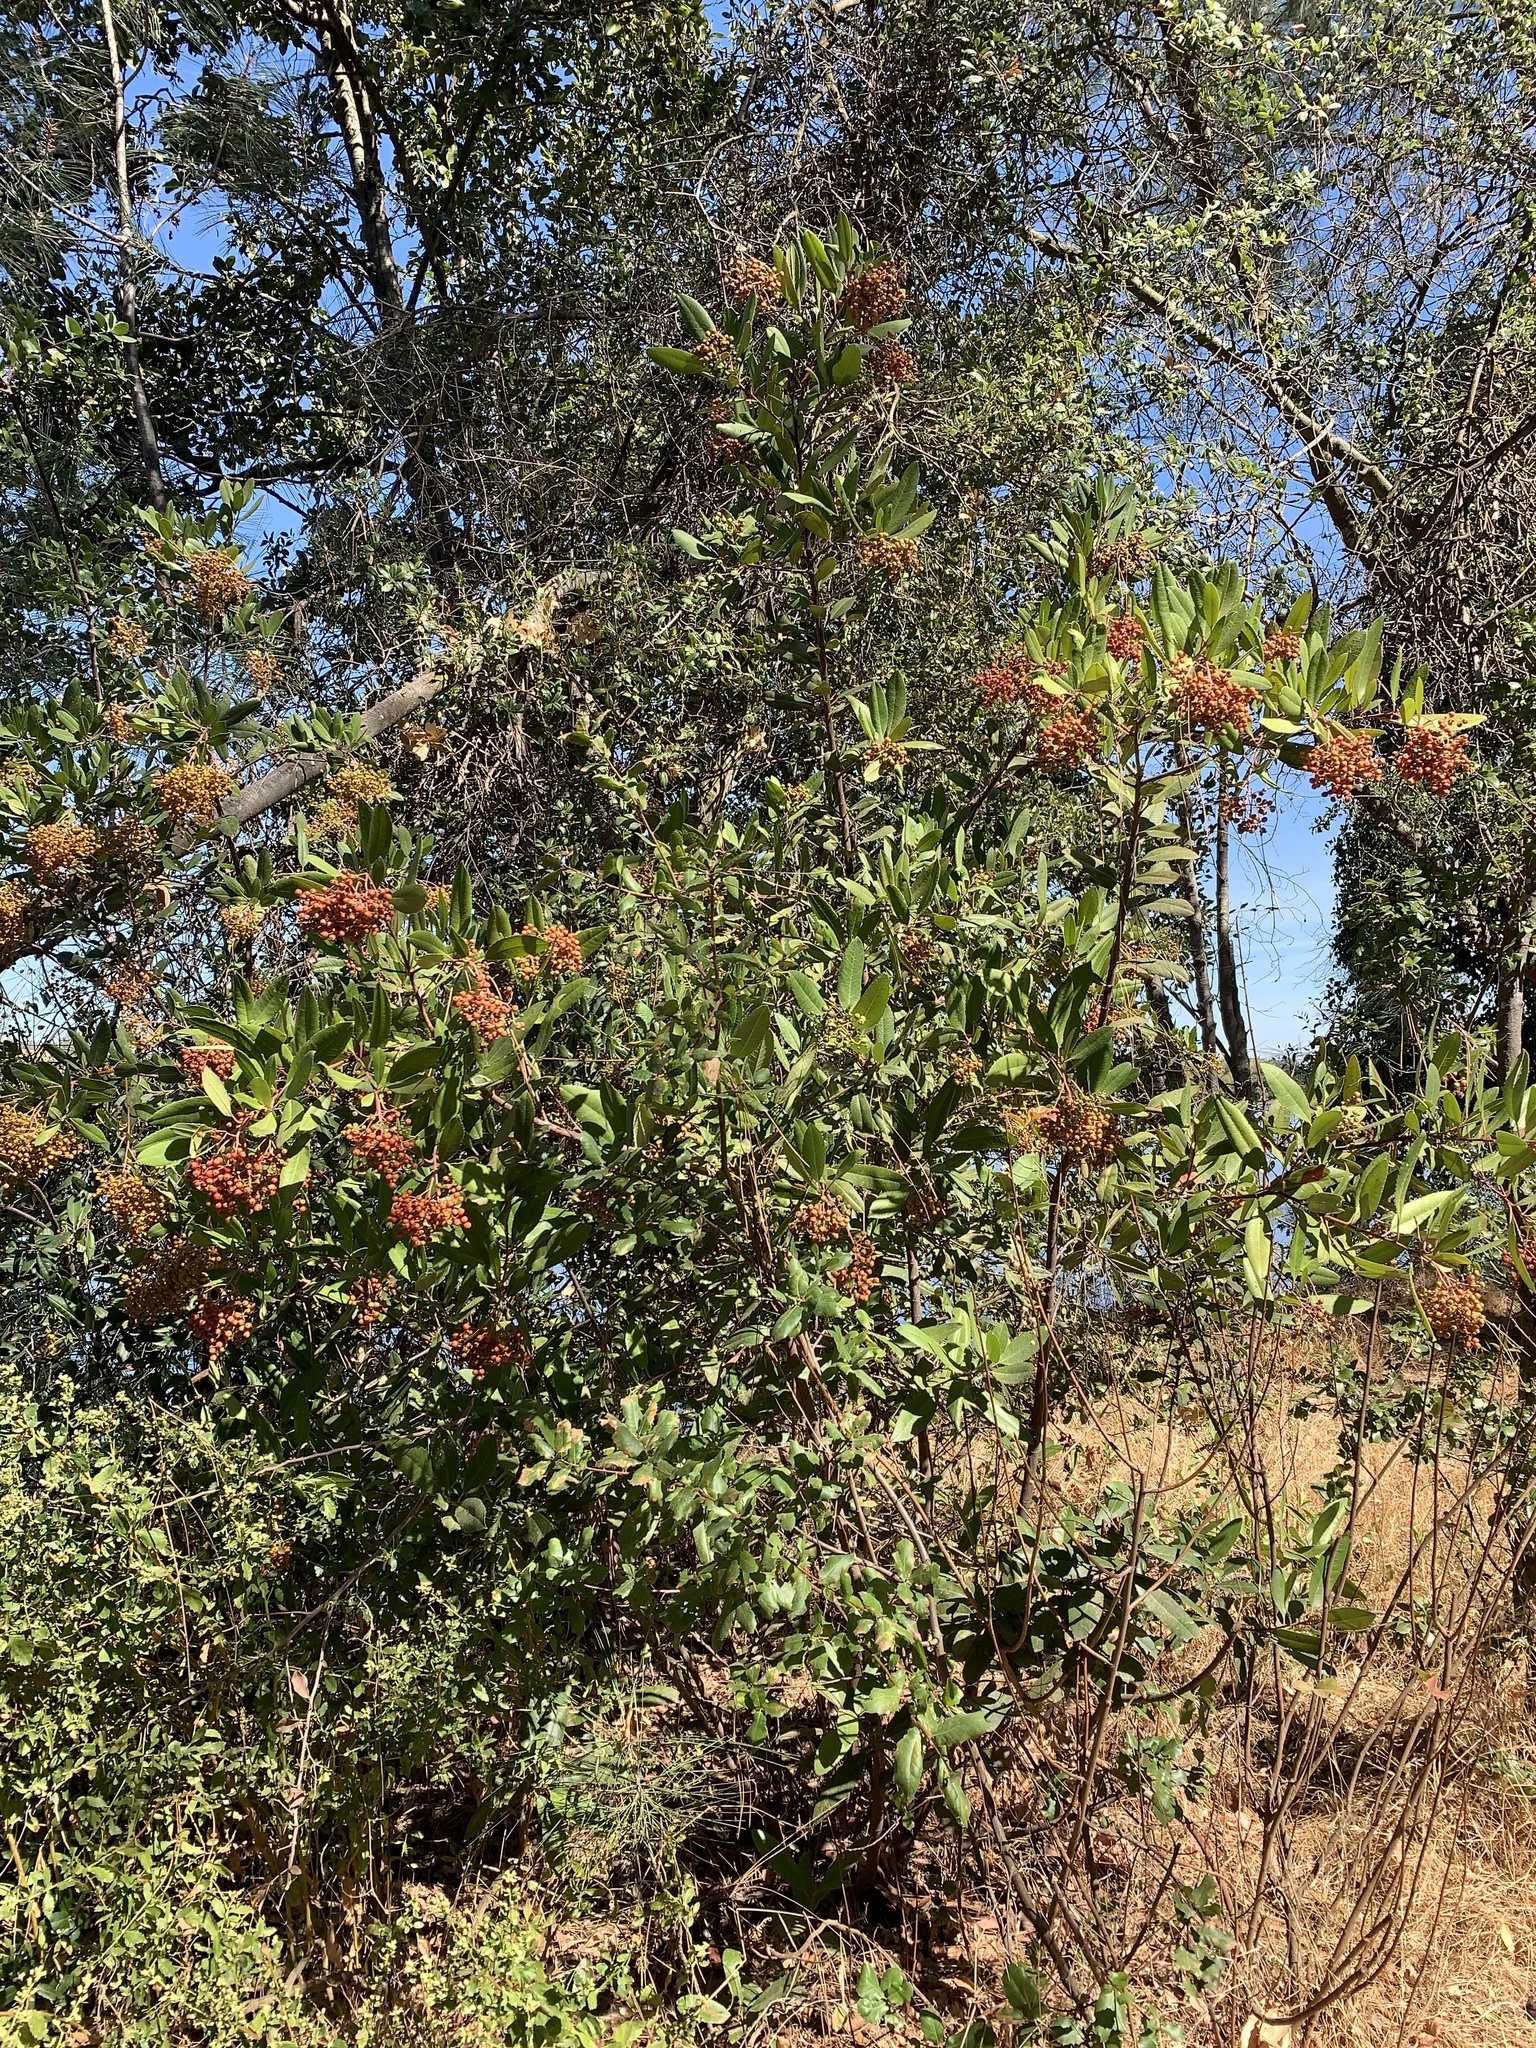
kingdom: Plantae
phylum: Tracheophyta
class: Magnoliopsida
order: Rosales
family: Rosaceae
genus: Heteromeles
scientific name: Heteromeles arbutifolia
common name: California-holly
